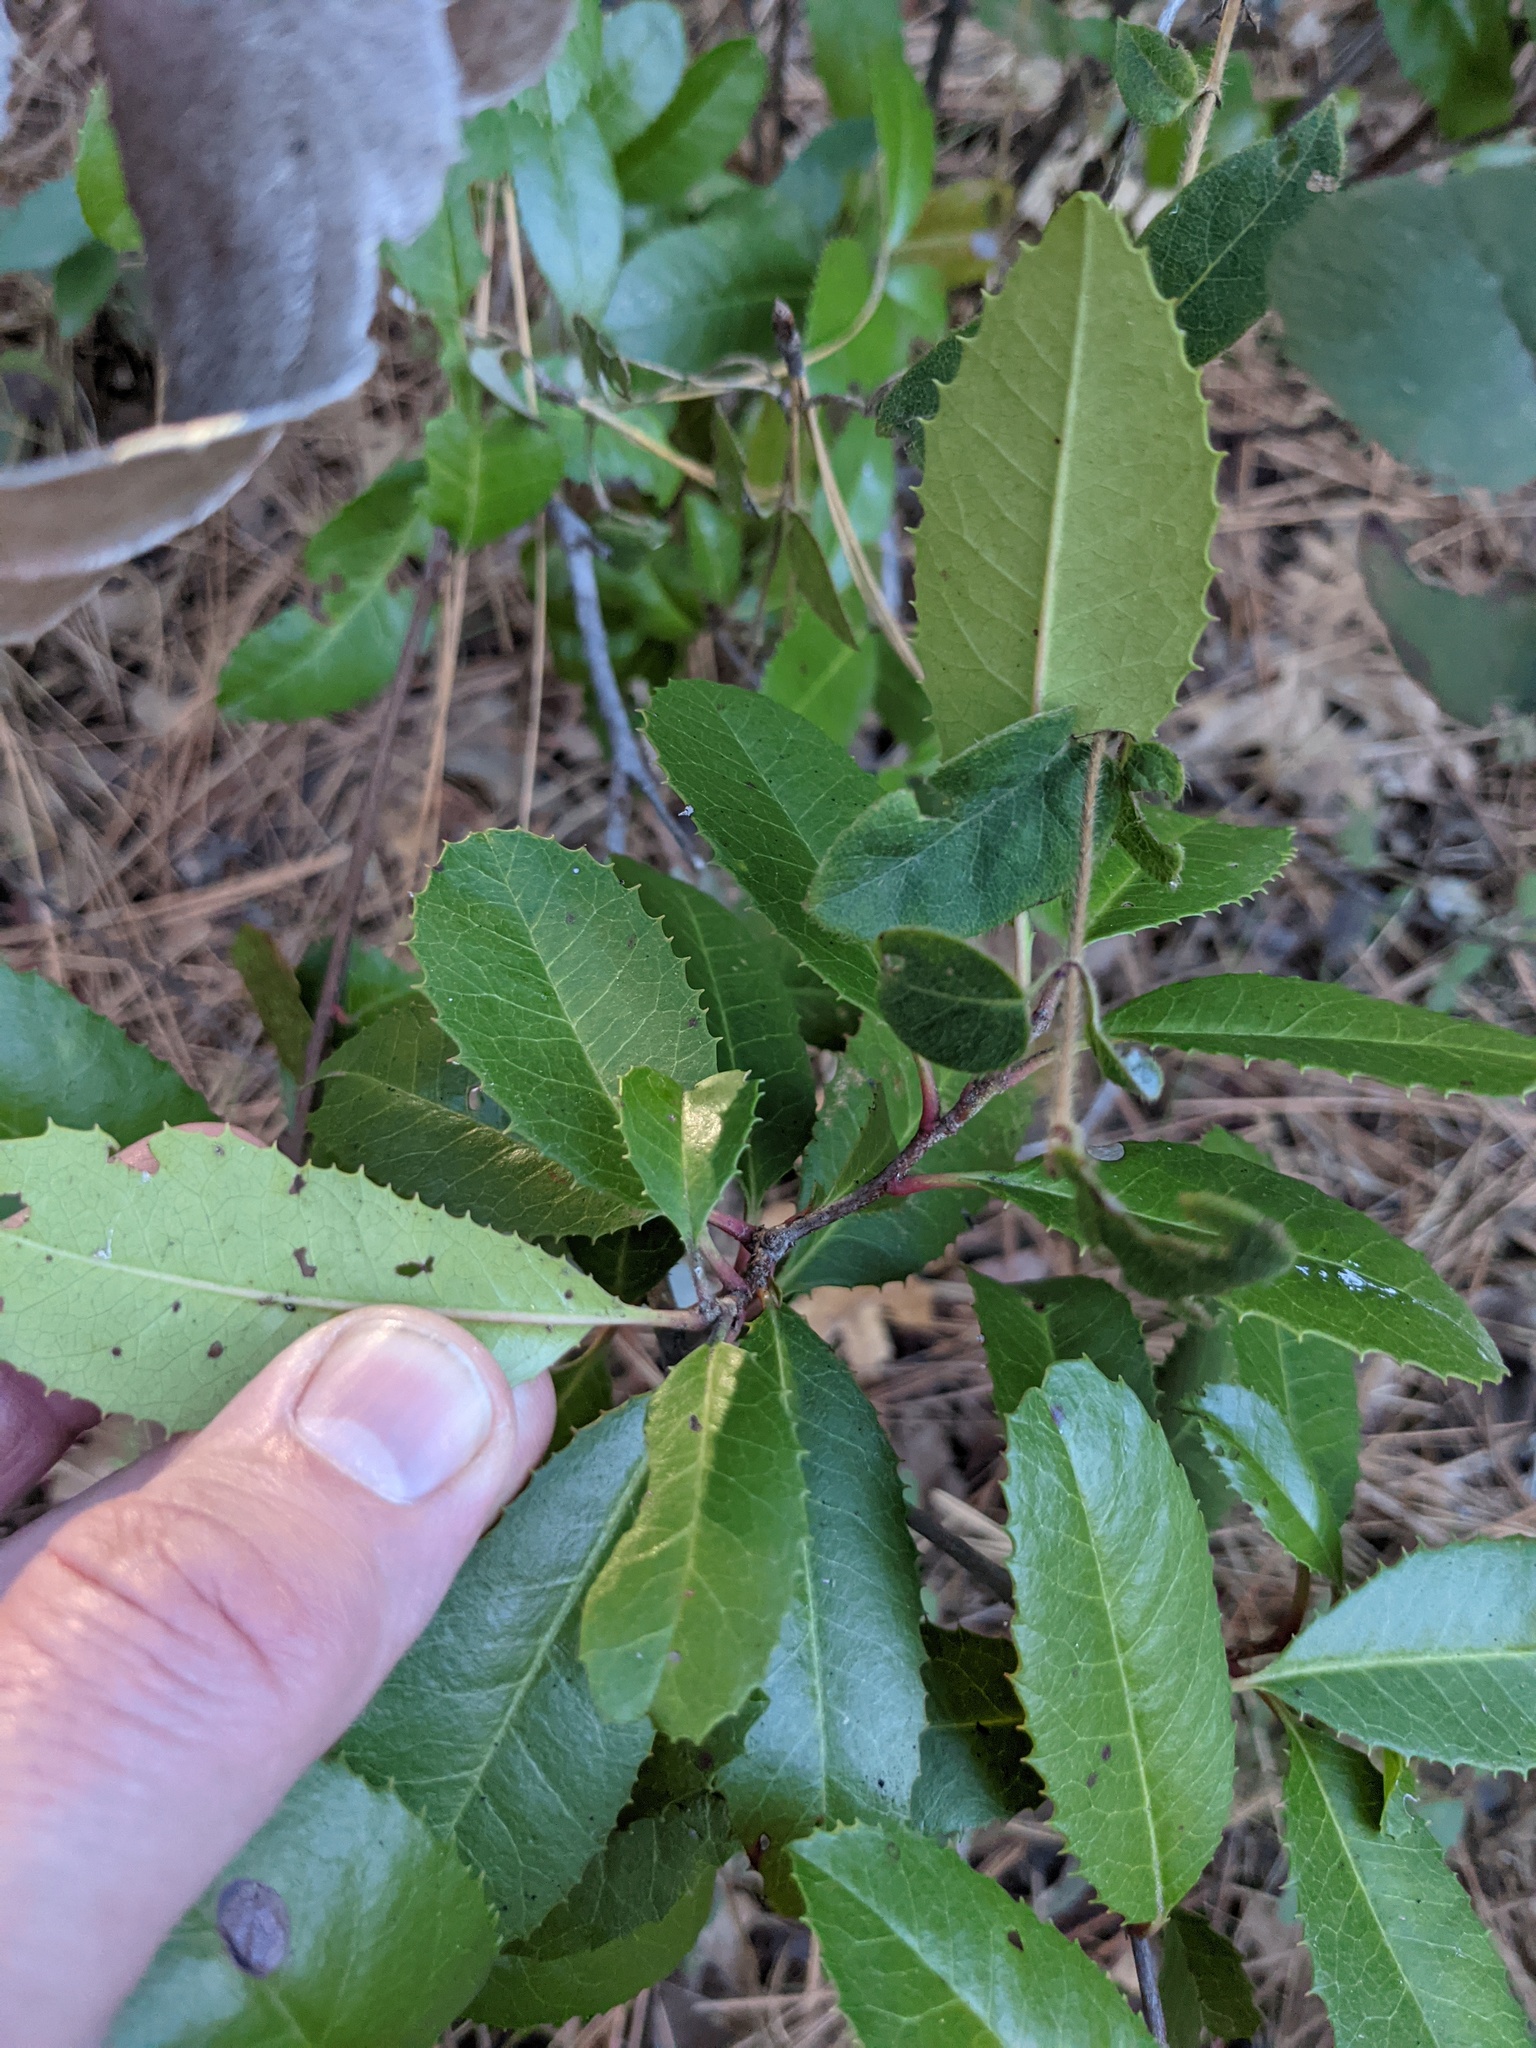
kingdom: Plantae
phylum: Tracheophyta
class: Magnoliopsida
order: Rosales
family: Rosaceae
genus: Heteromeles
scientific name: Heteromeles arbutifolia
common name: California-holly
